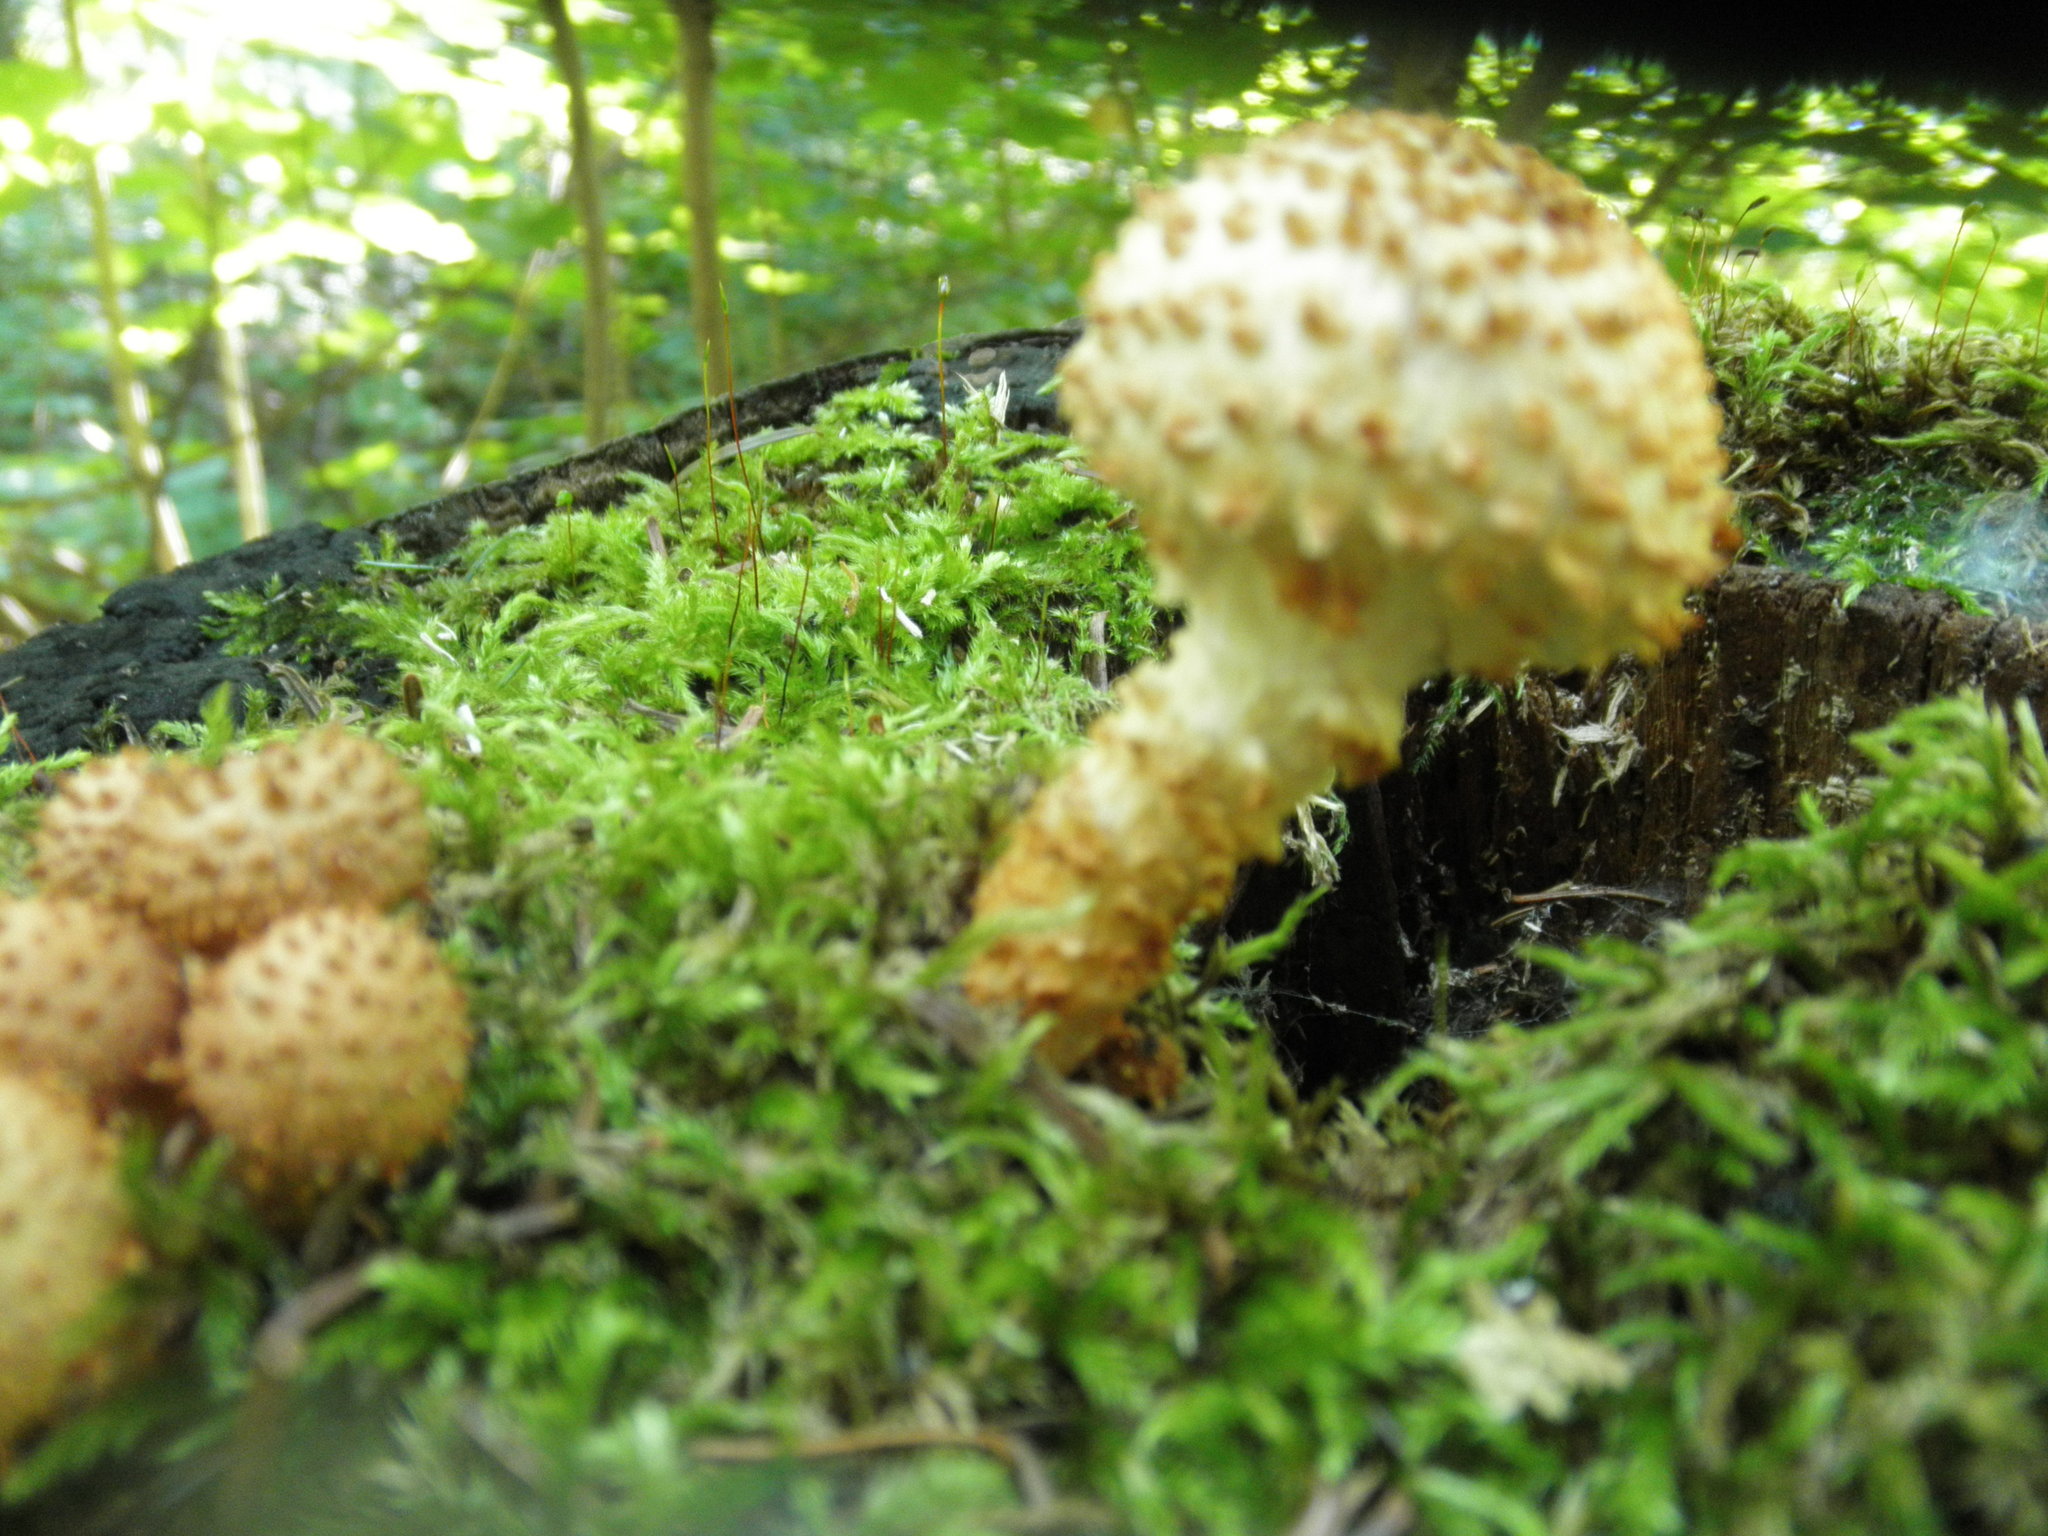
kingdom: Fungi
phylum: Basidiomycota
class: Agaricomycetes
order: Agaricales
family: Strophariaceae
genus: Pholiota
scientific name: Pholiota squarrosoides
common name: Sharp-scaly pholiota
